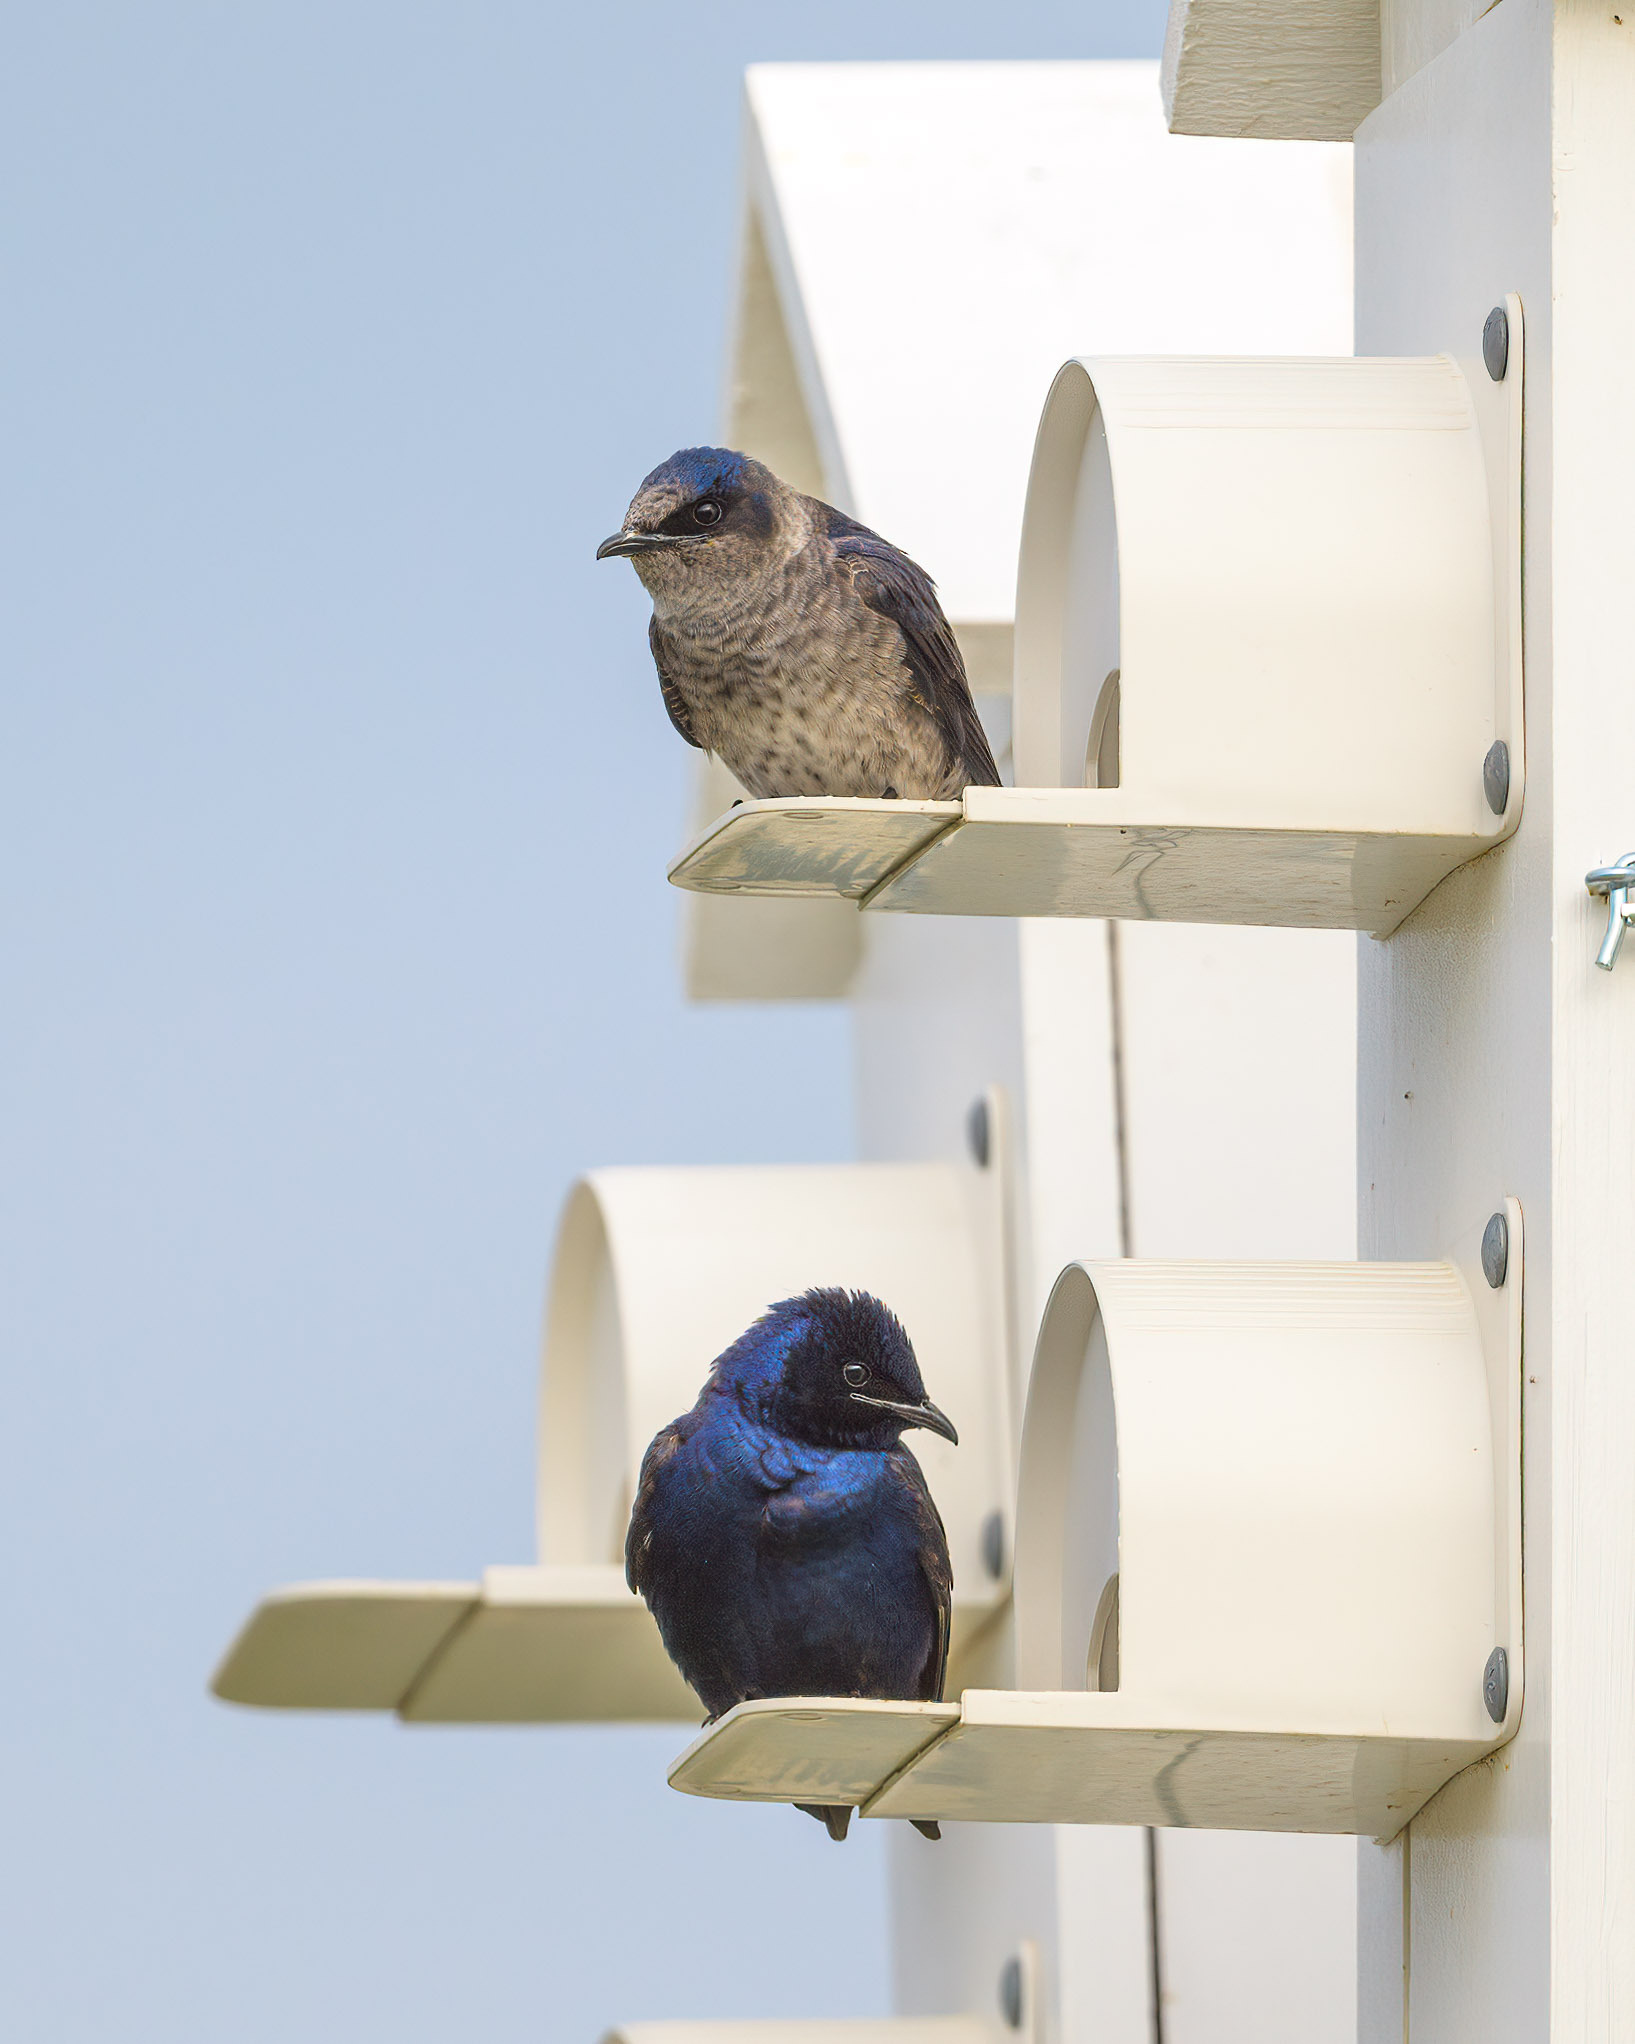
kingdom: Animalia
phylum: Chordata
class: Aves
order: Passeriformes
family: Hirundinidae
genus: Progne
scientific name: Progne subis
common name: Purple martin
